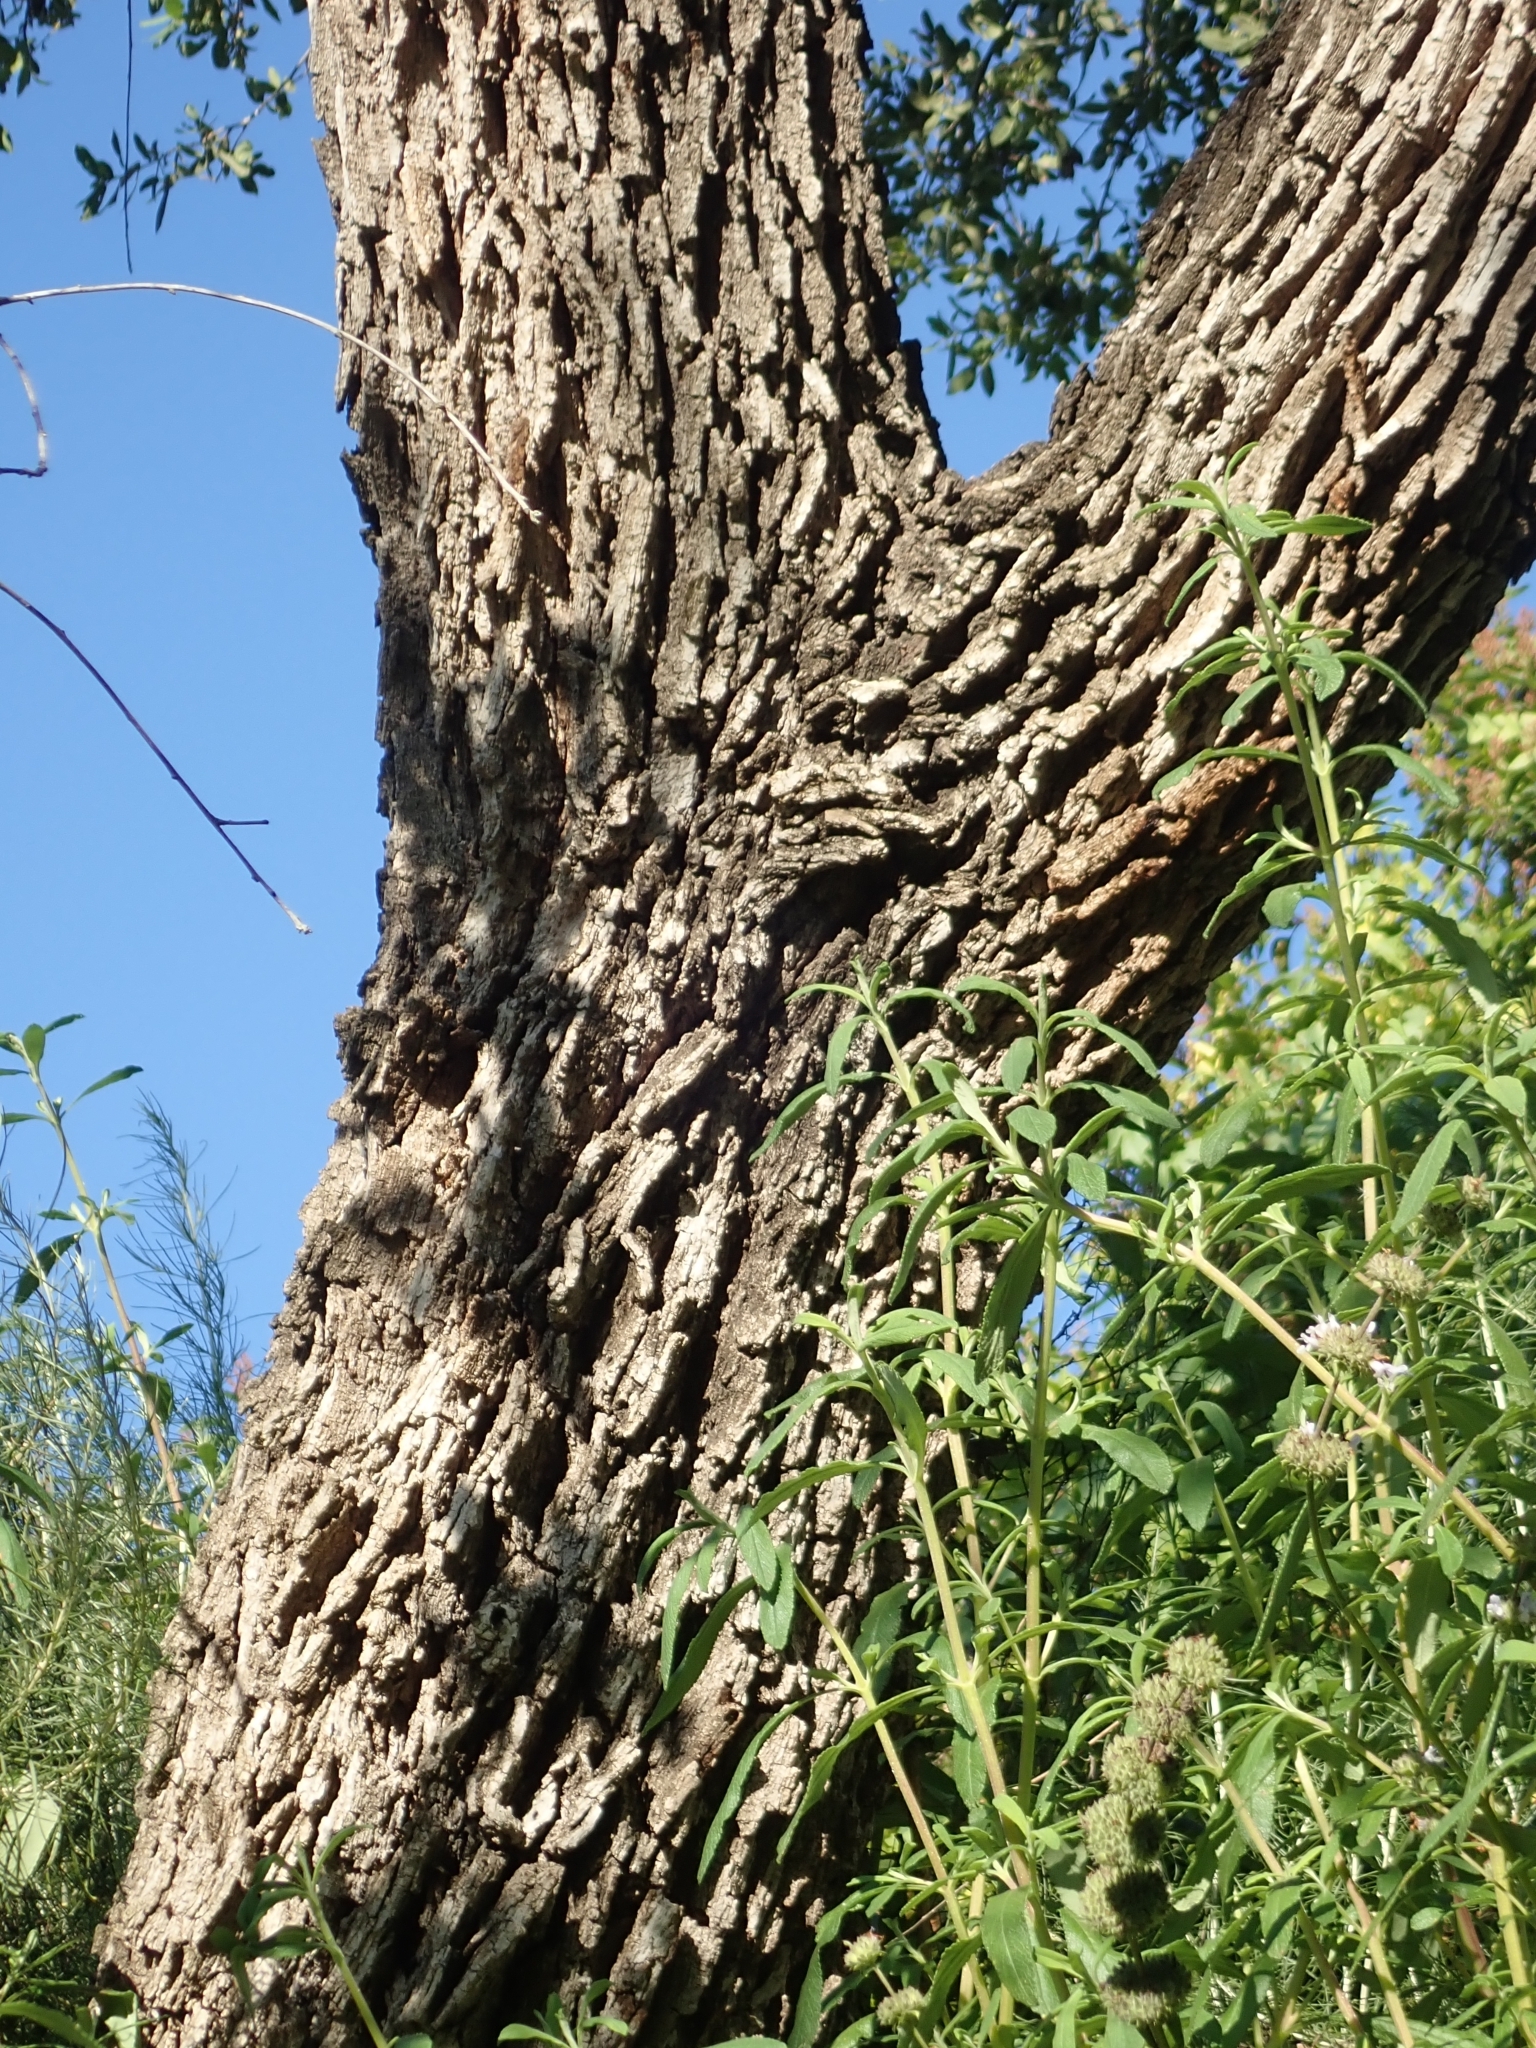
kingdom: Plantae
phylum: Tracheophyta
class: Magnoliopsida
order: Fagales
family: Fagaceae
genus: Quercus
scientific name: Quercus engelmannii
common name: Engelmann oak
